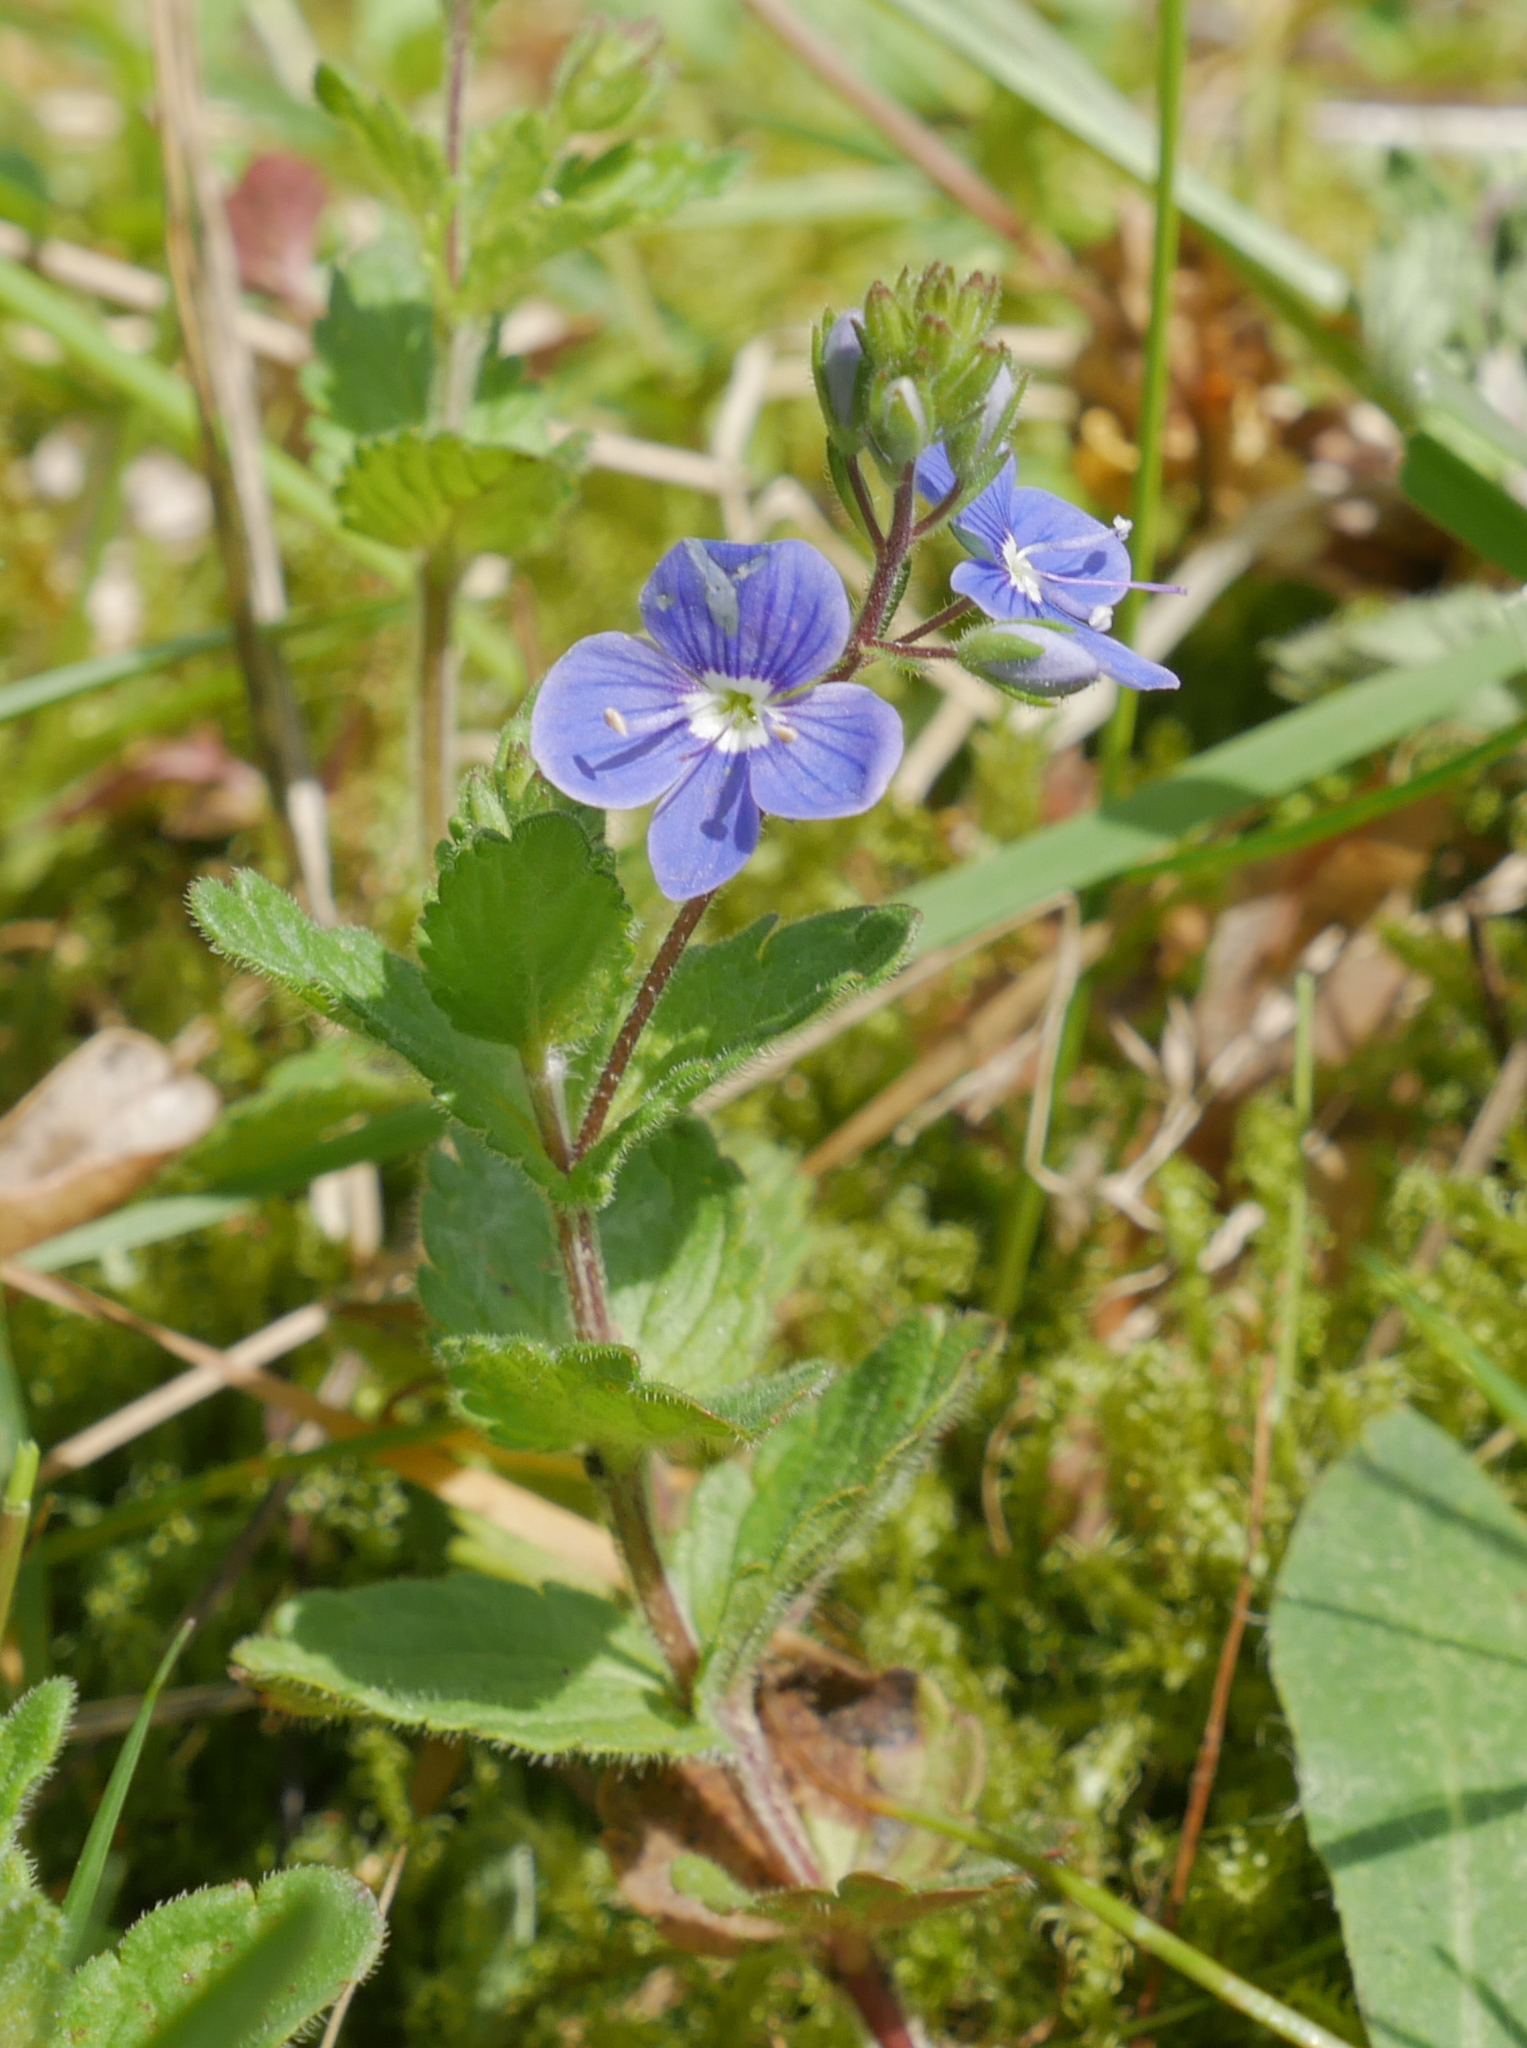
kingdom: Plantae
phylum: Tracheophyta
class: Magnoliopsida
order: Lamiales
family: Plantaginaceae
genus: Veronica
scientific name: Veronica chamaedrys
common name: Germander speedwell
